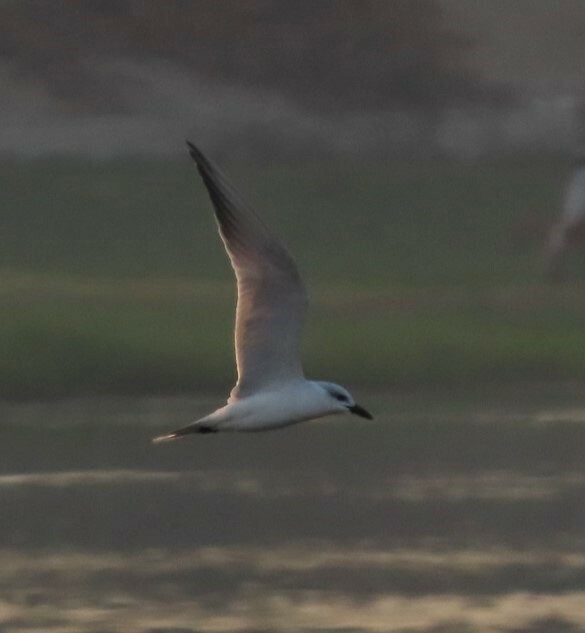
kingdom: Animalia
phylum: Chordata
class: Aves
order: Charadriiformes
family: Laridae
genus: Gelochelidon
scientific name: Gelochelidon nilotica
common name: Gull-billed tern
